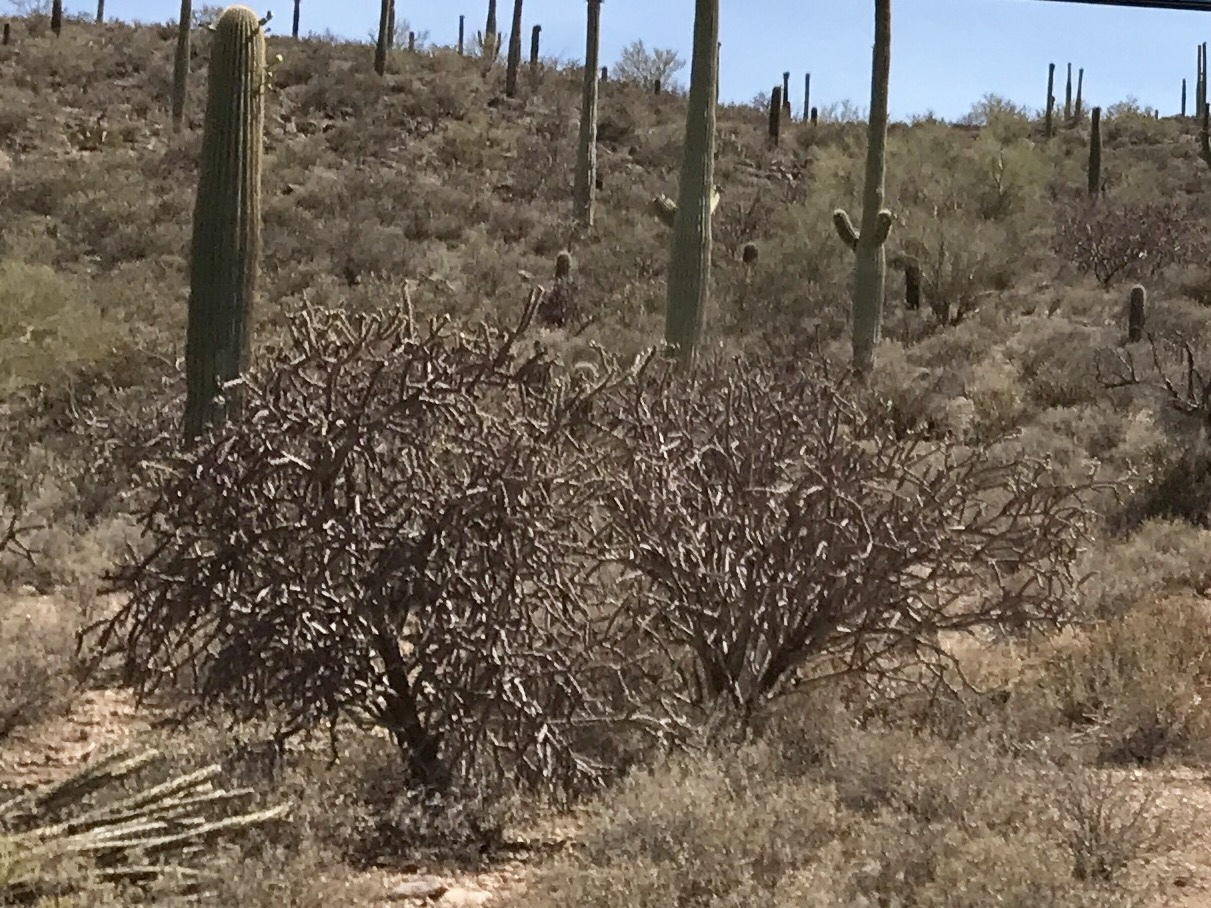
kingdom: Plantae
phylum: Tracheophyta
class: Magnoliopsida
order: Caryophyllales
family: Cactaceae
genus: Cylindropuntia
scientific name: Cylindropuntia thurberi
